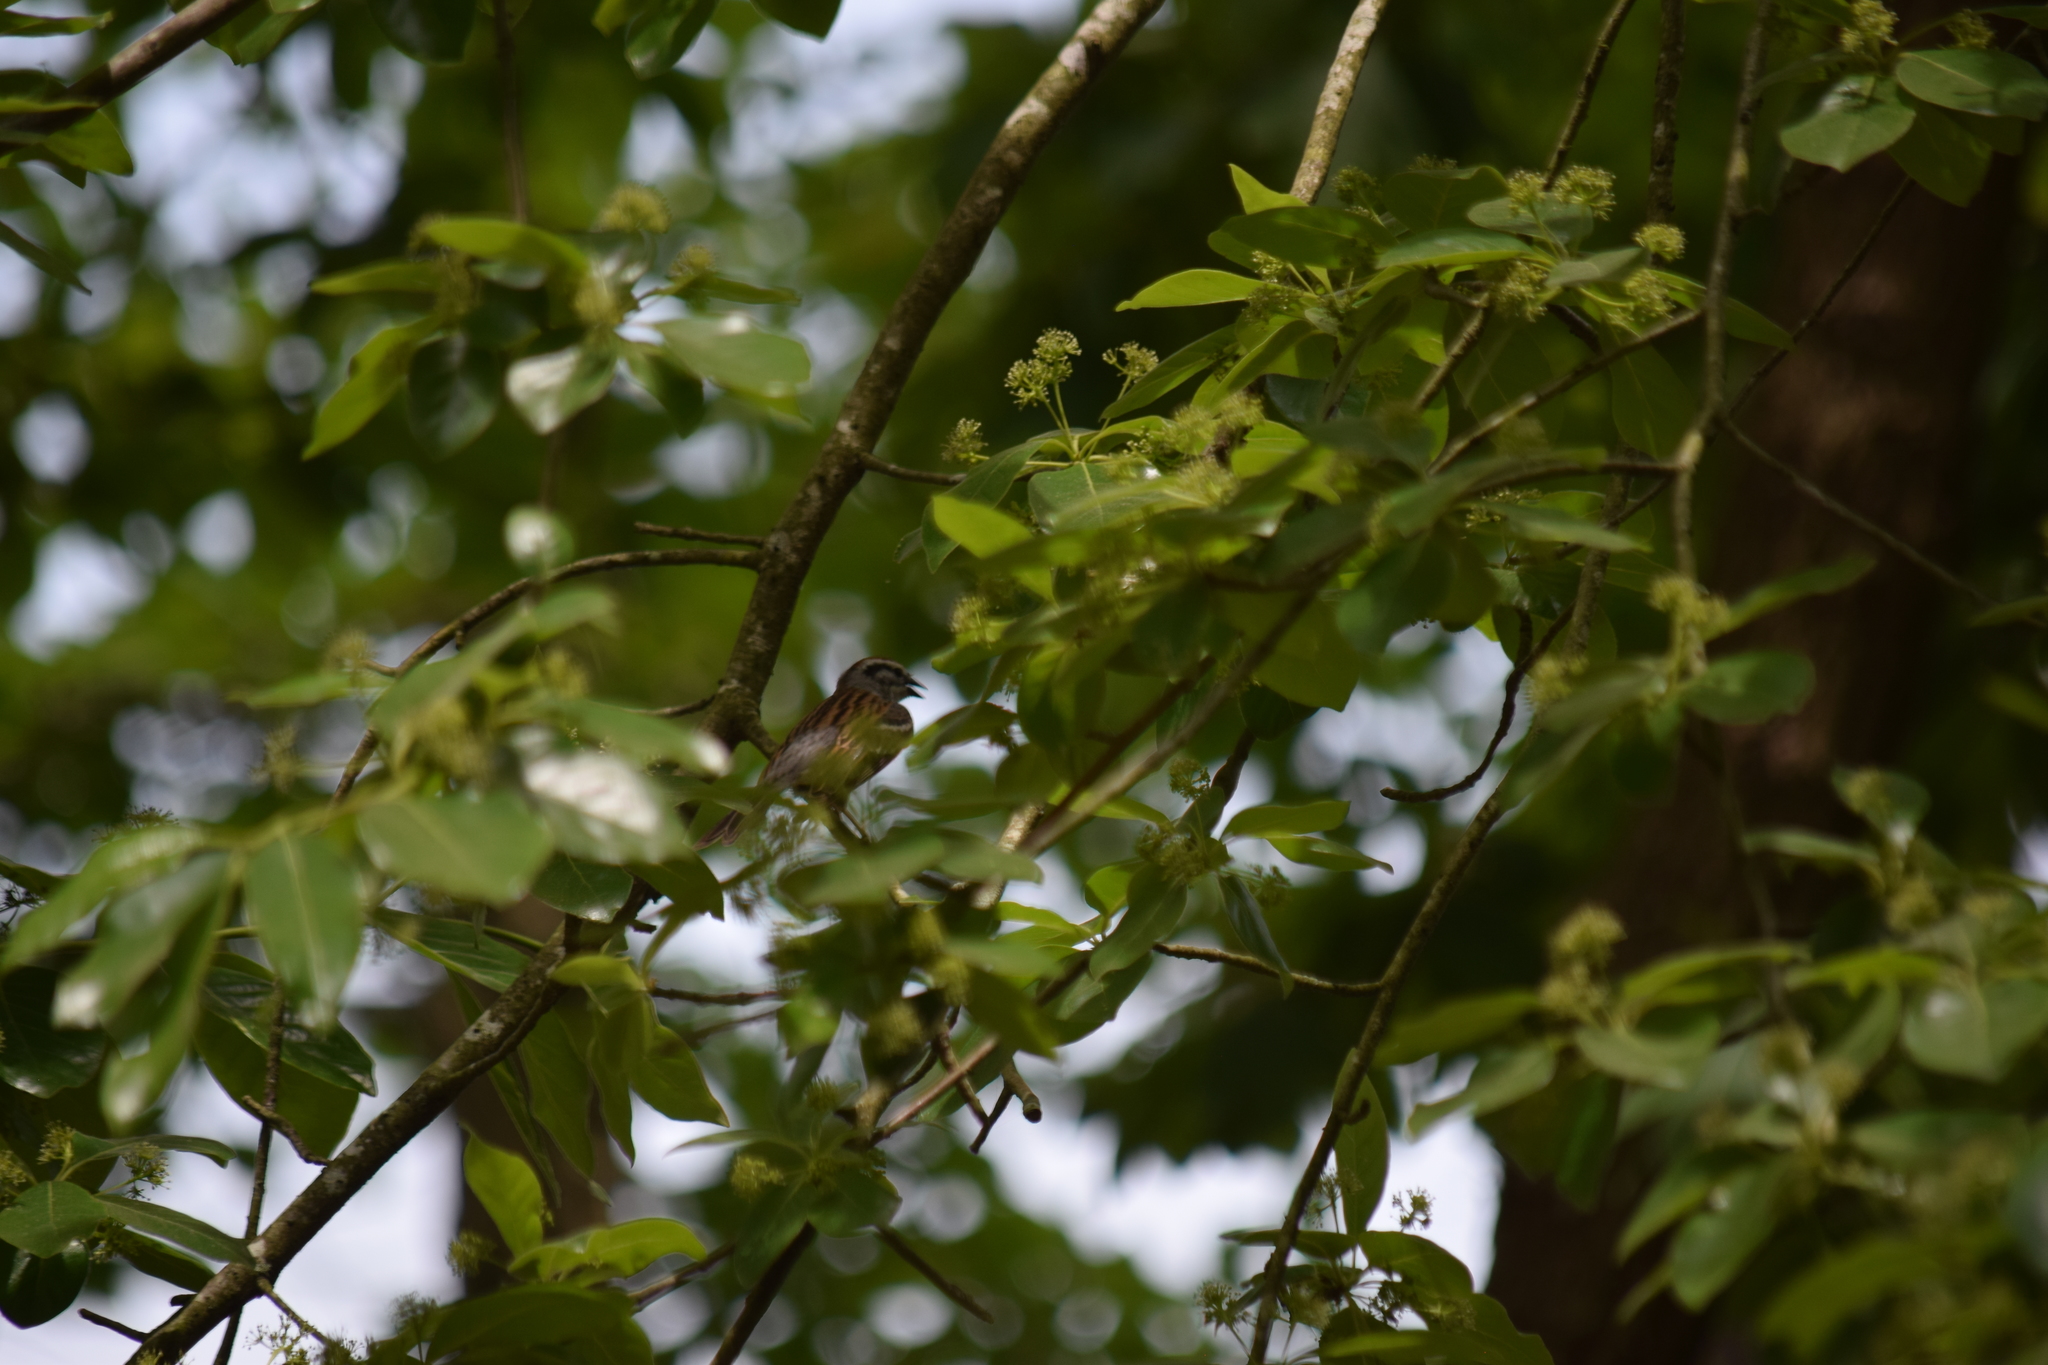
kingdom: Animalia
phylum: Chordata
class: Aves
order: Passeriformes
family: Passerellidae
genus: Spizella
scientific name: Spizella passerina
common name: Chipping sparrow
